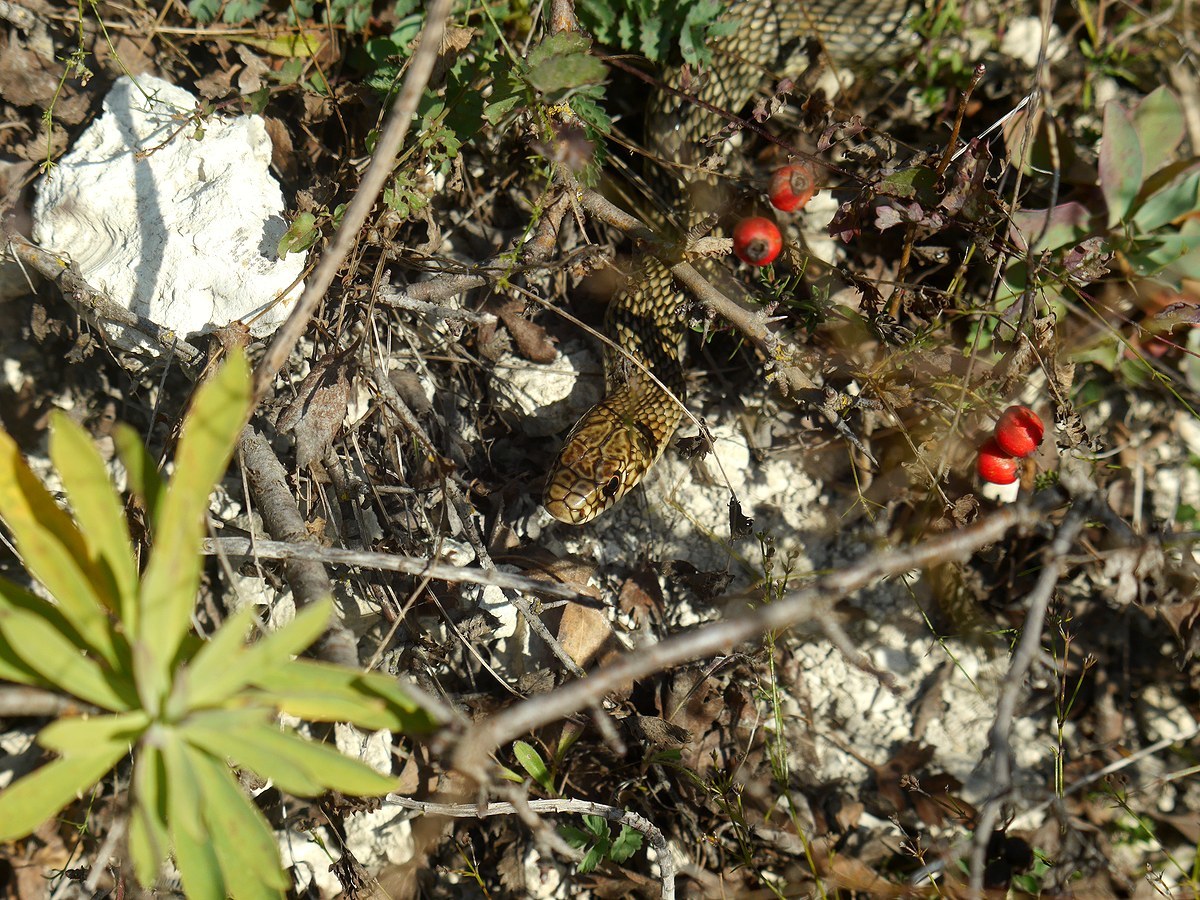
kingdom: Animalia
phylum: Chordata
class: Squamata
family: Colubridae
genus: Dolichophis
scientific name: Dolichophis caspius
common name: Large whip snake
